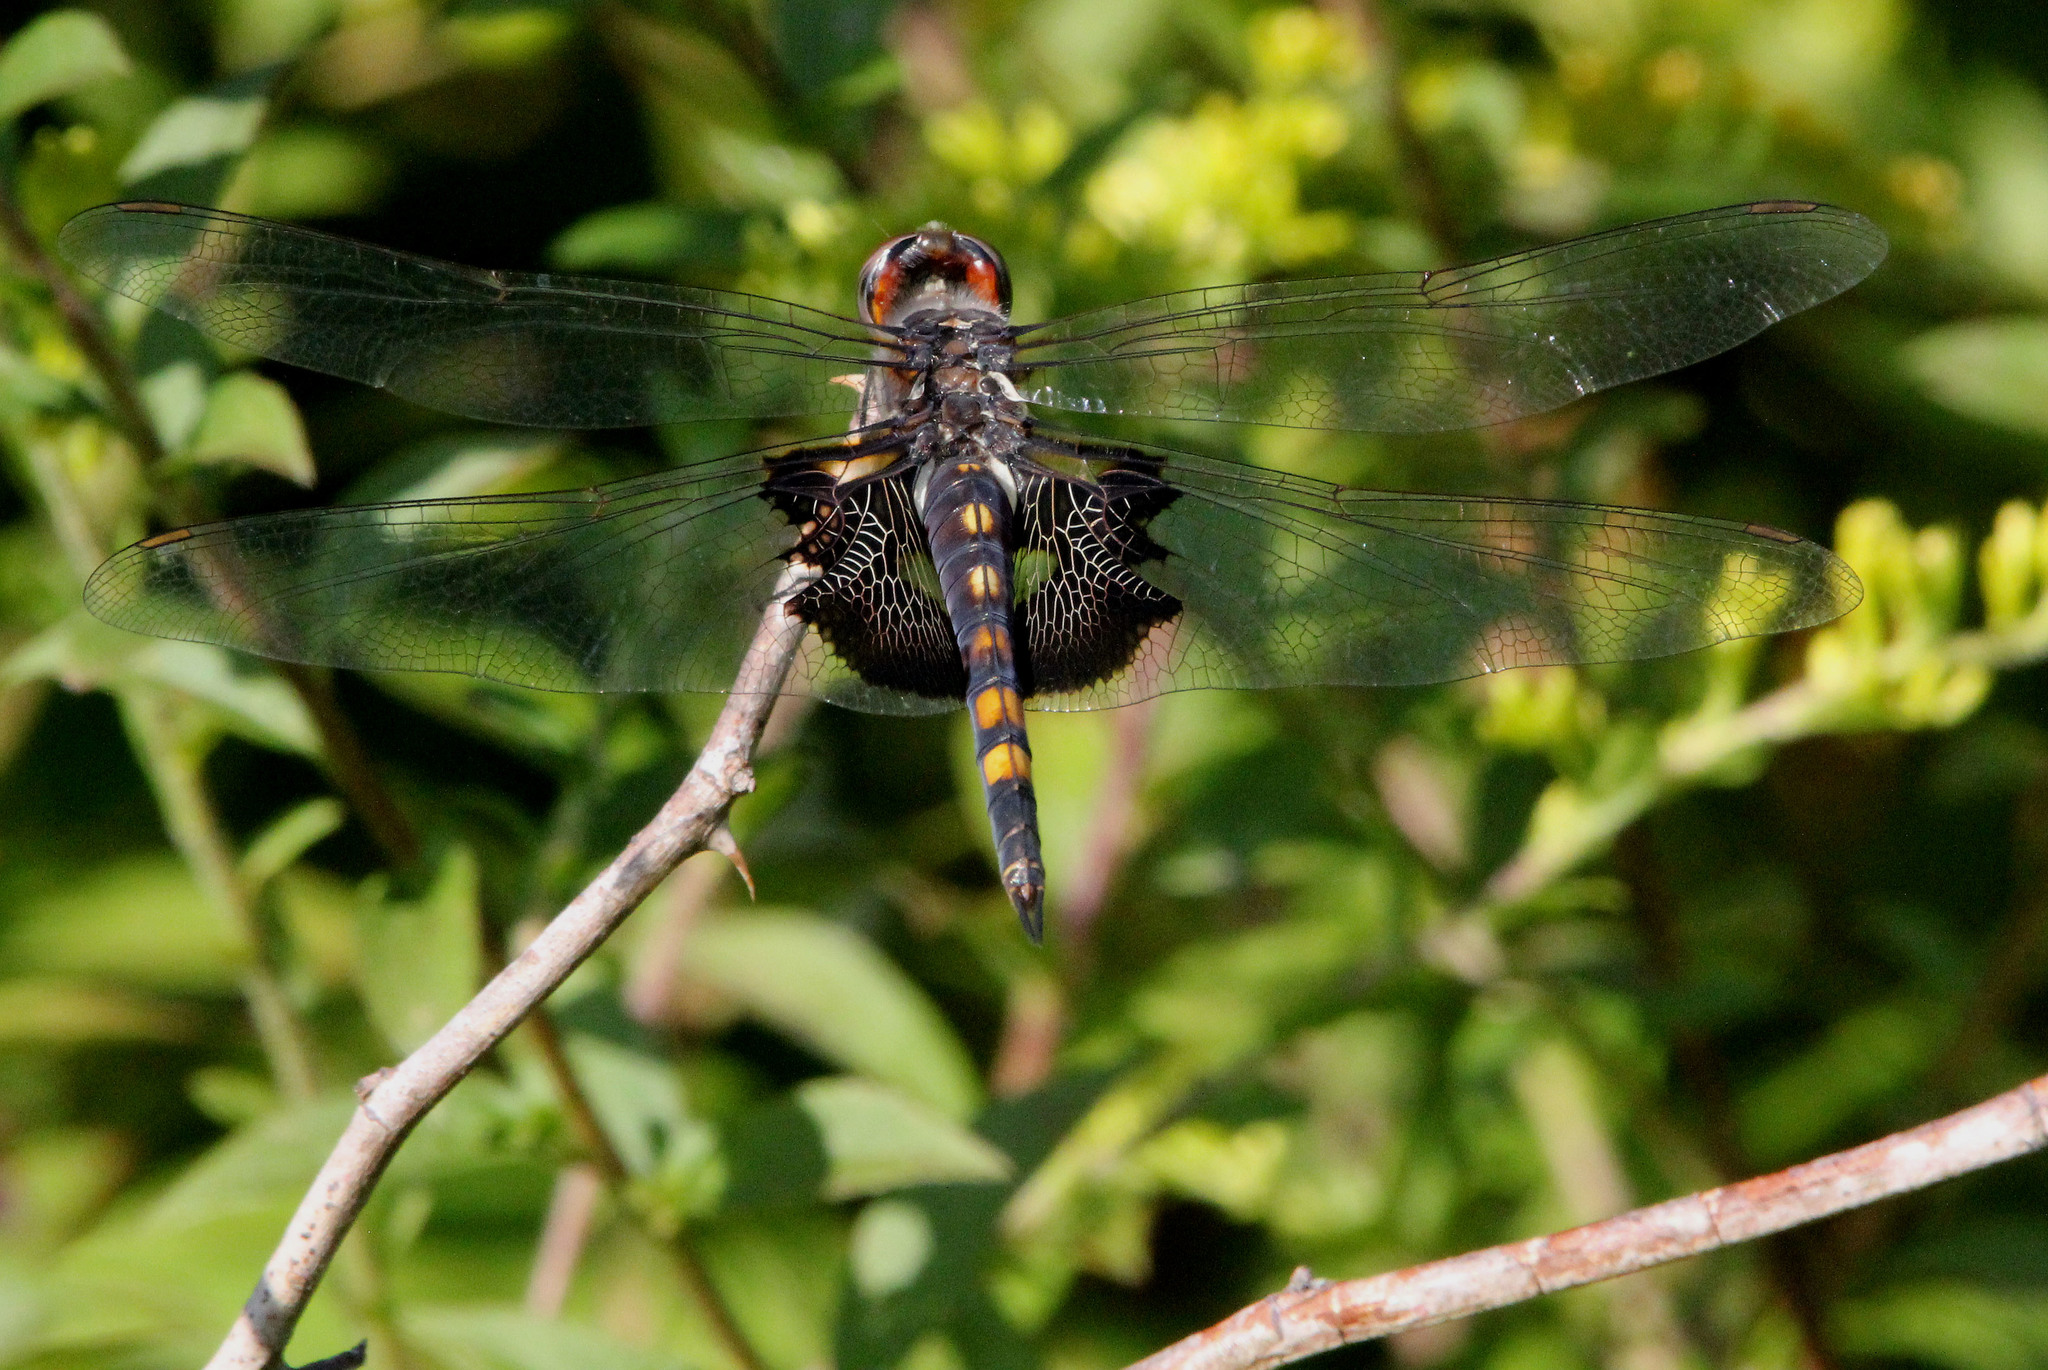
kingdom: Animalia
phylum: Arthropoda
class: Insecta
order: Odonata
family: Libellulidae
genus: Tramea
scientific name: Tramea lacerata
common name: Black saddlebags
